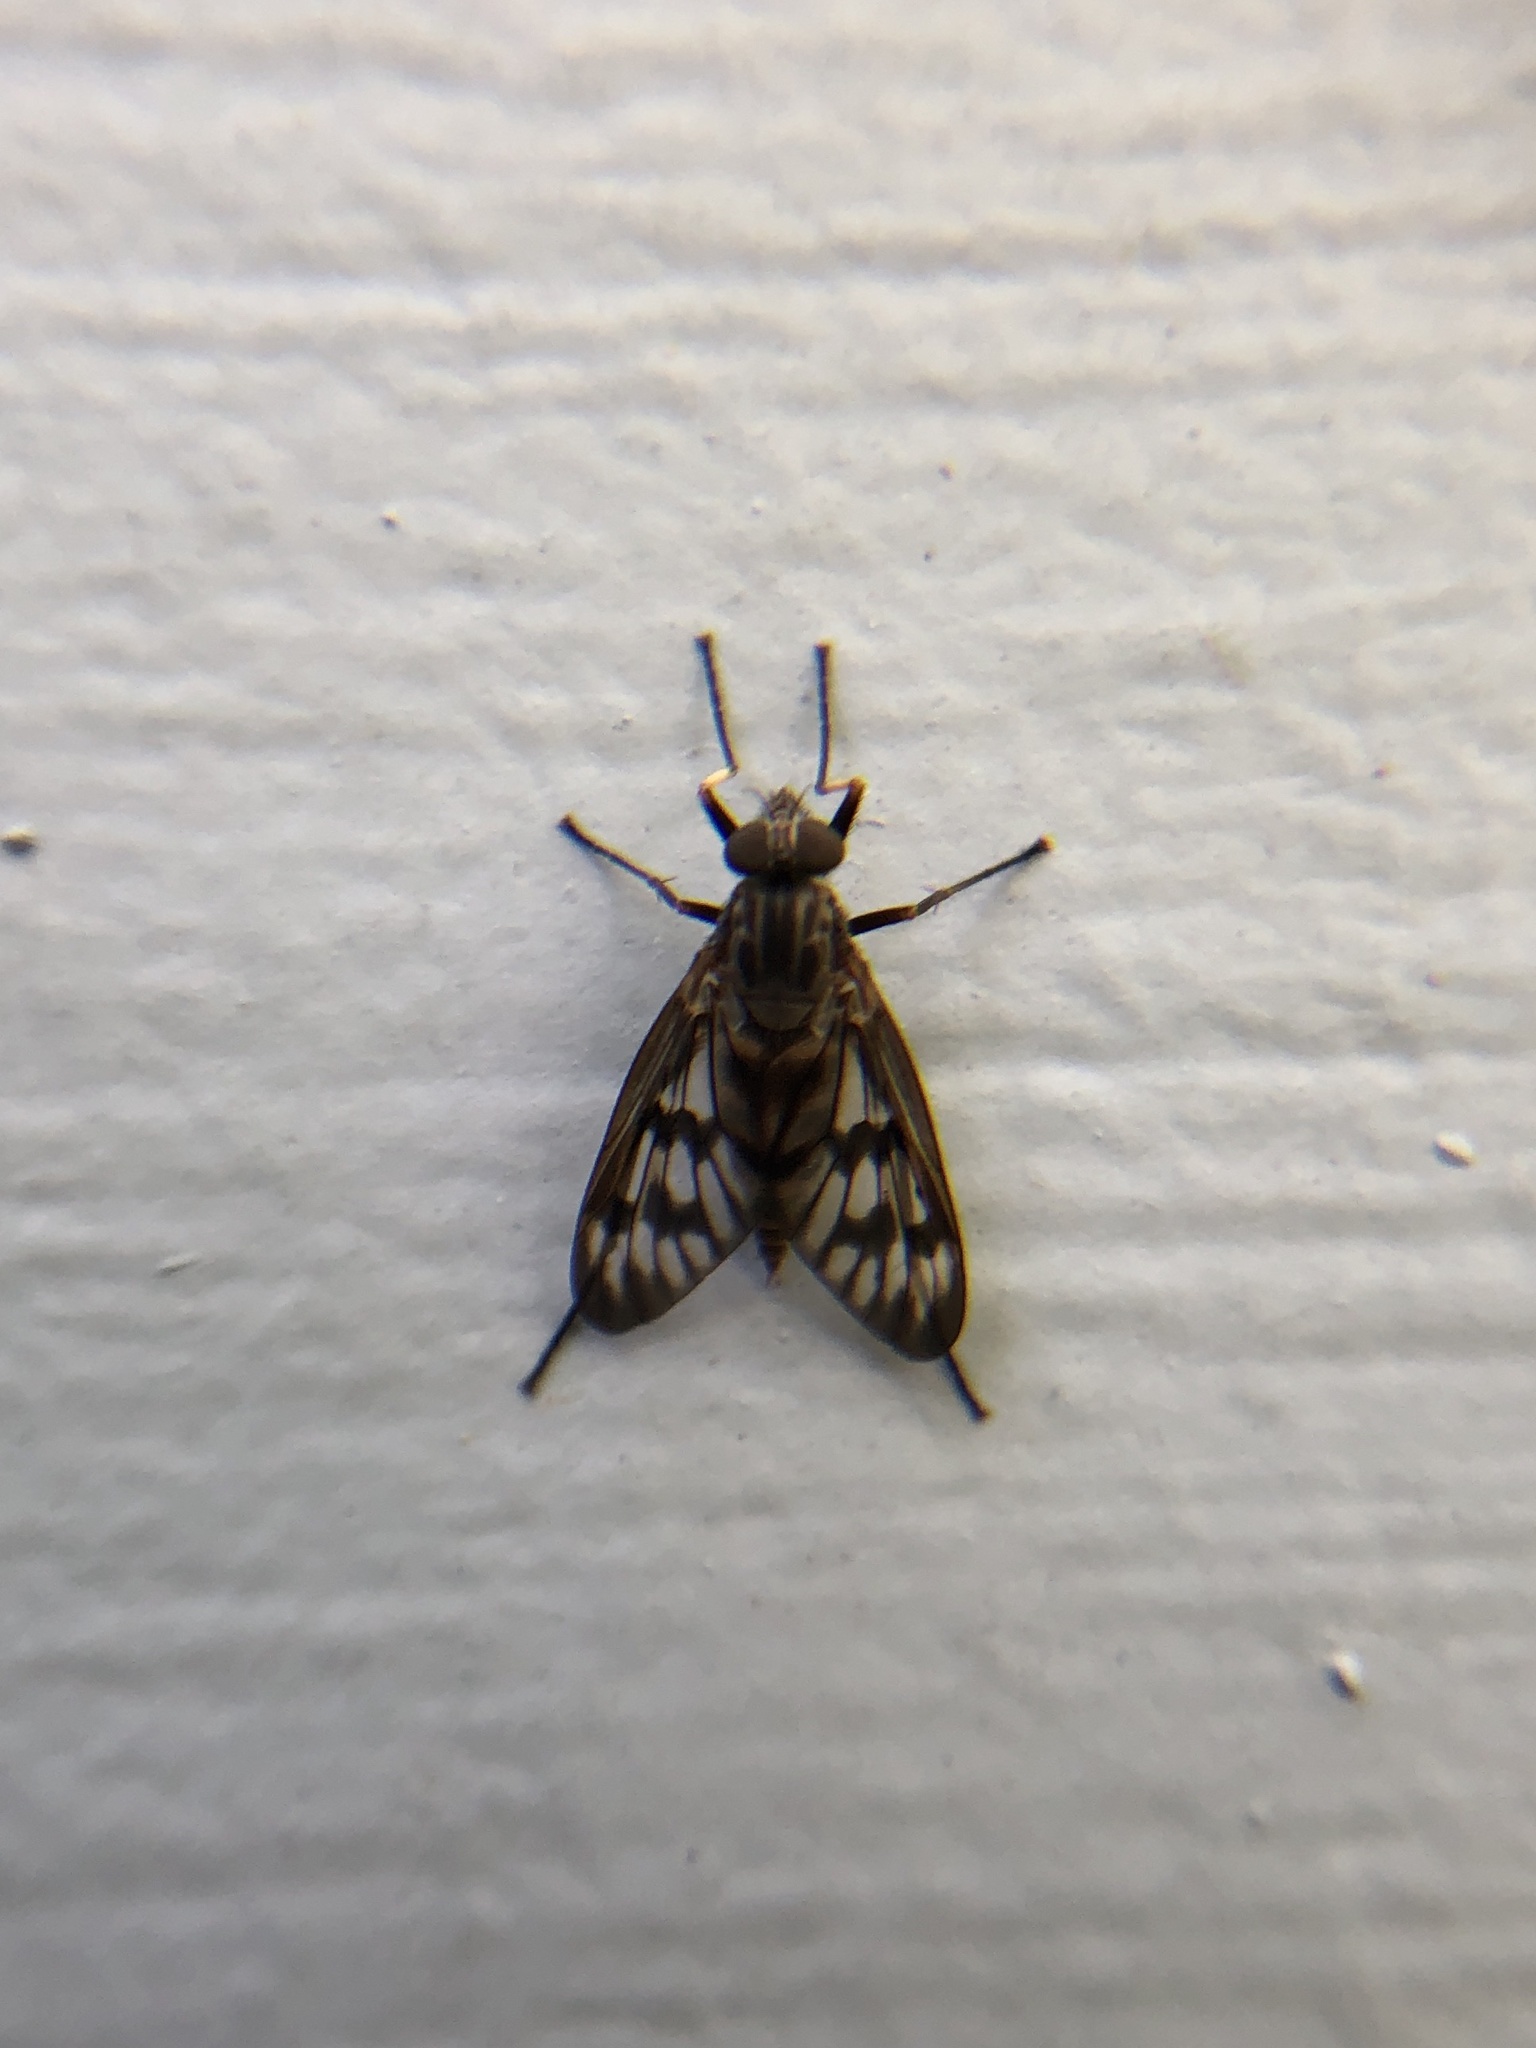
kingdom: Animalia
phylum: Arthropoda
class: Insecta
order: Diptera
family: Rhagionidae
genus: Rhagio
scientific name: Rhagio mystaceus
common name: Common snipe fly
